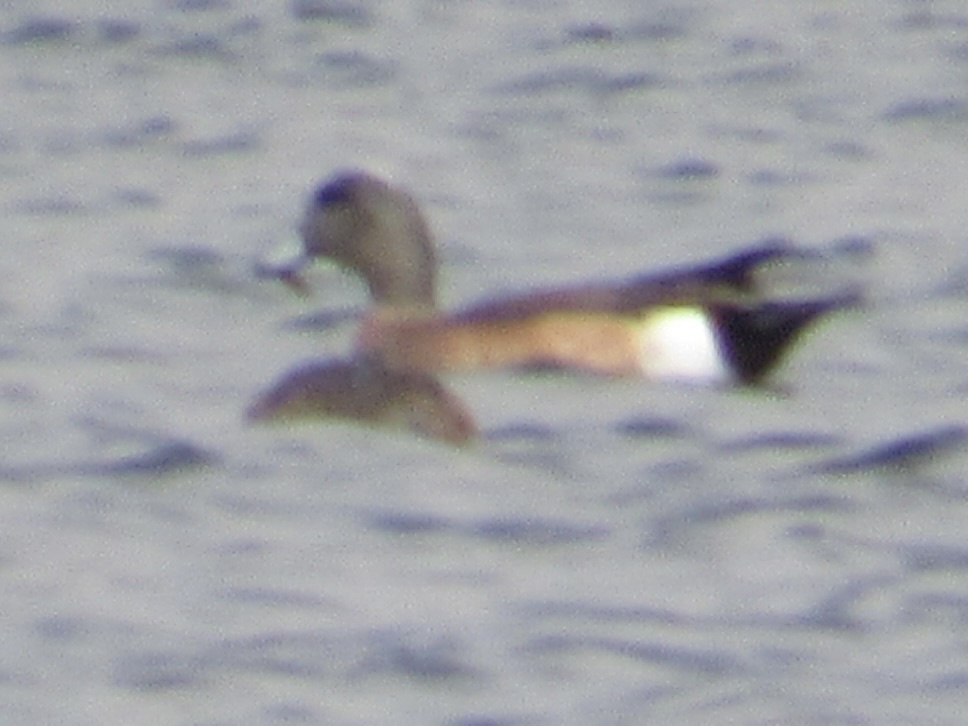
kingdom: Animalia
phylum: Chordata
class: Aves
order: Anseriformes
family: Anatidae
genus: Mareca
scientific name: Mareca americana
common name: American wigeon
